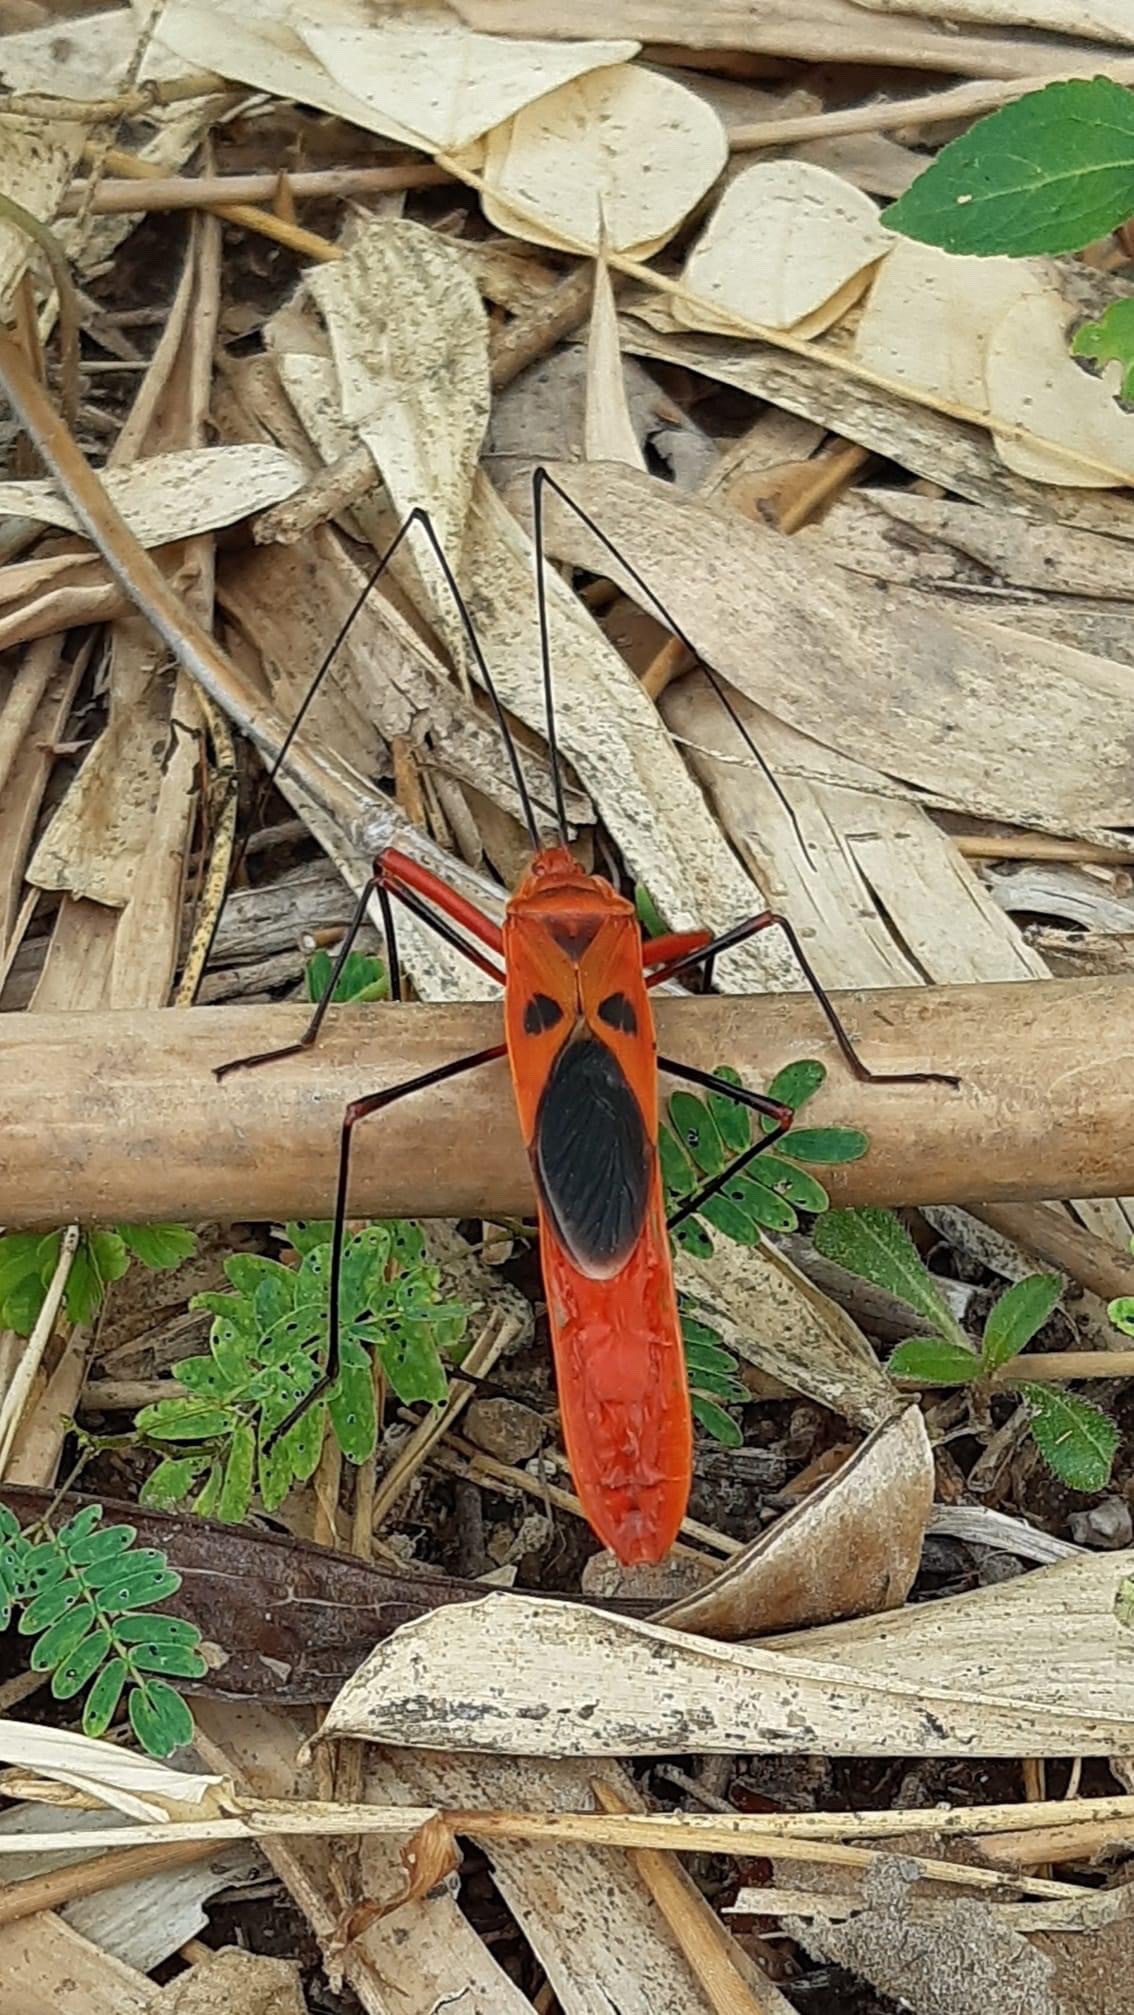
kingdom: Animalia
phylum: Arthropoda
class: Insecta
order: Hemiptera
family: Largidae
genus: Macrocheraia
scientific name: Macrocheraia grandis
